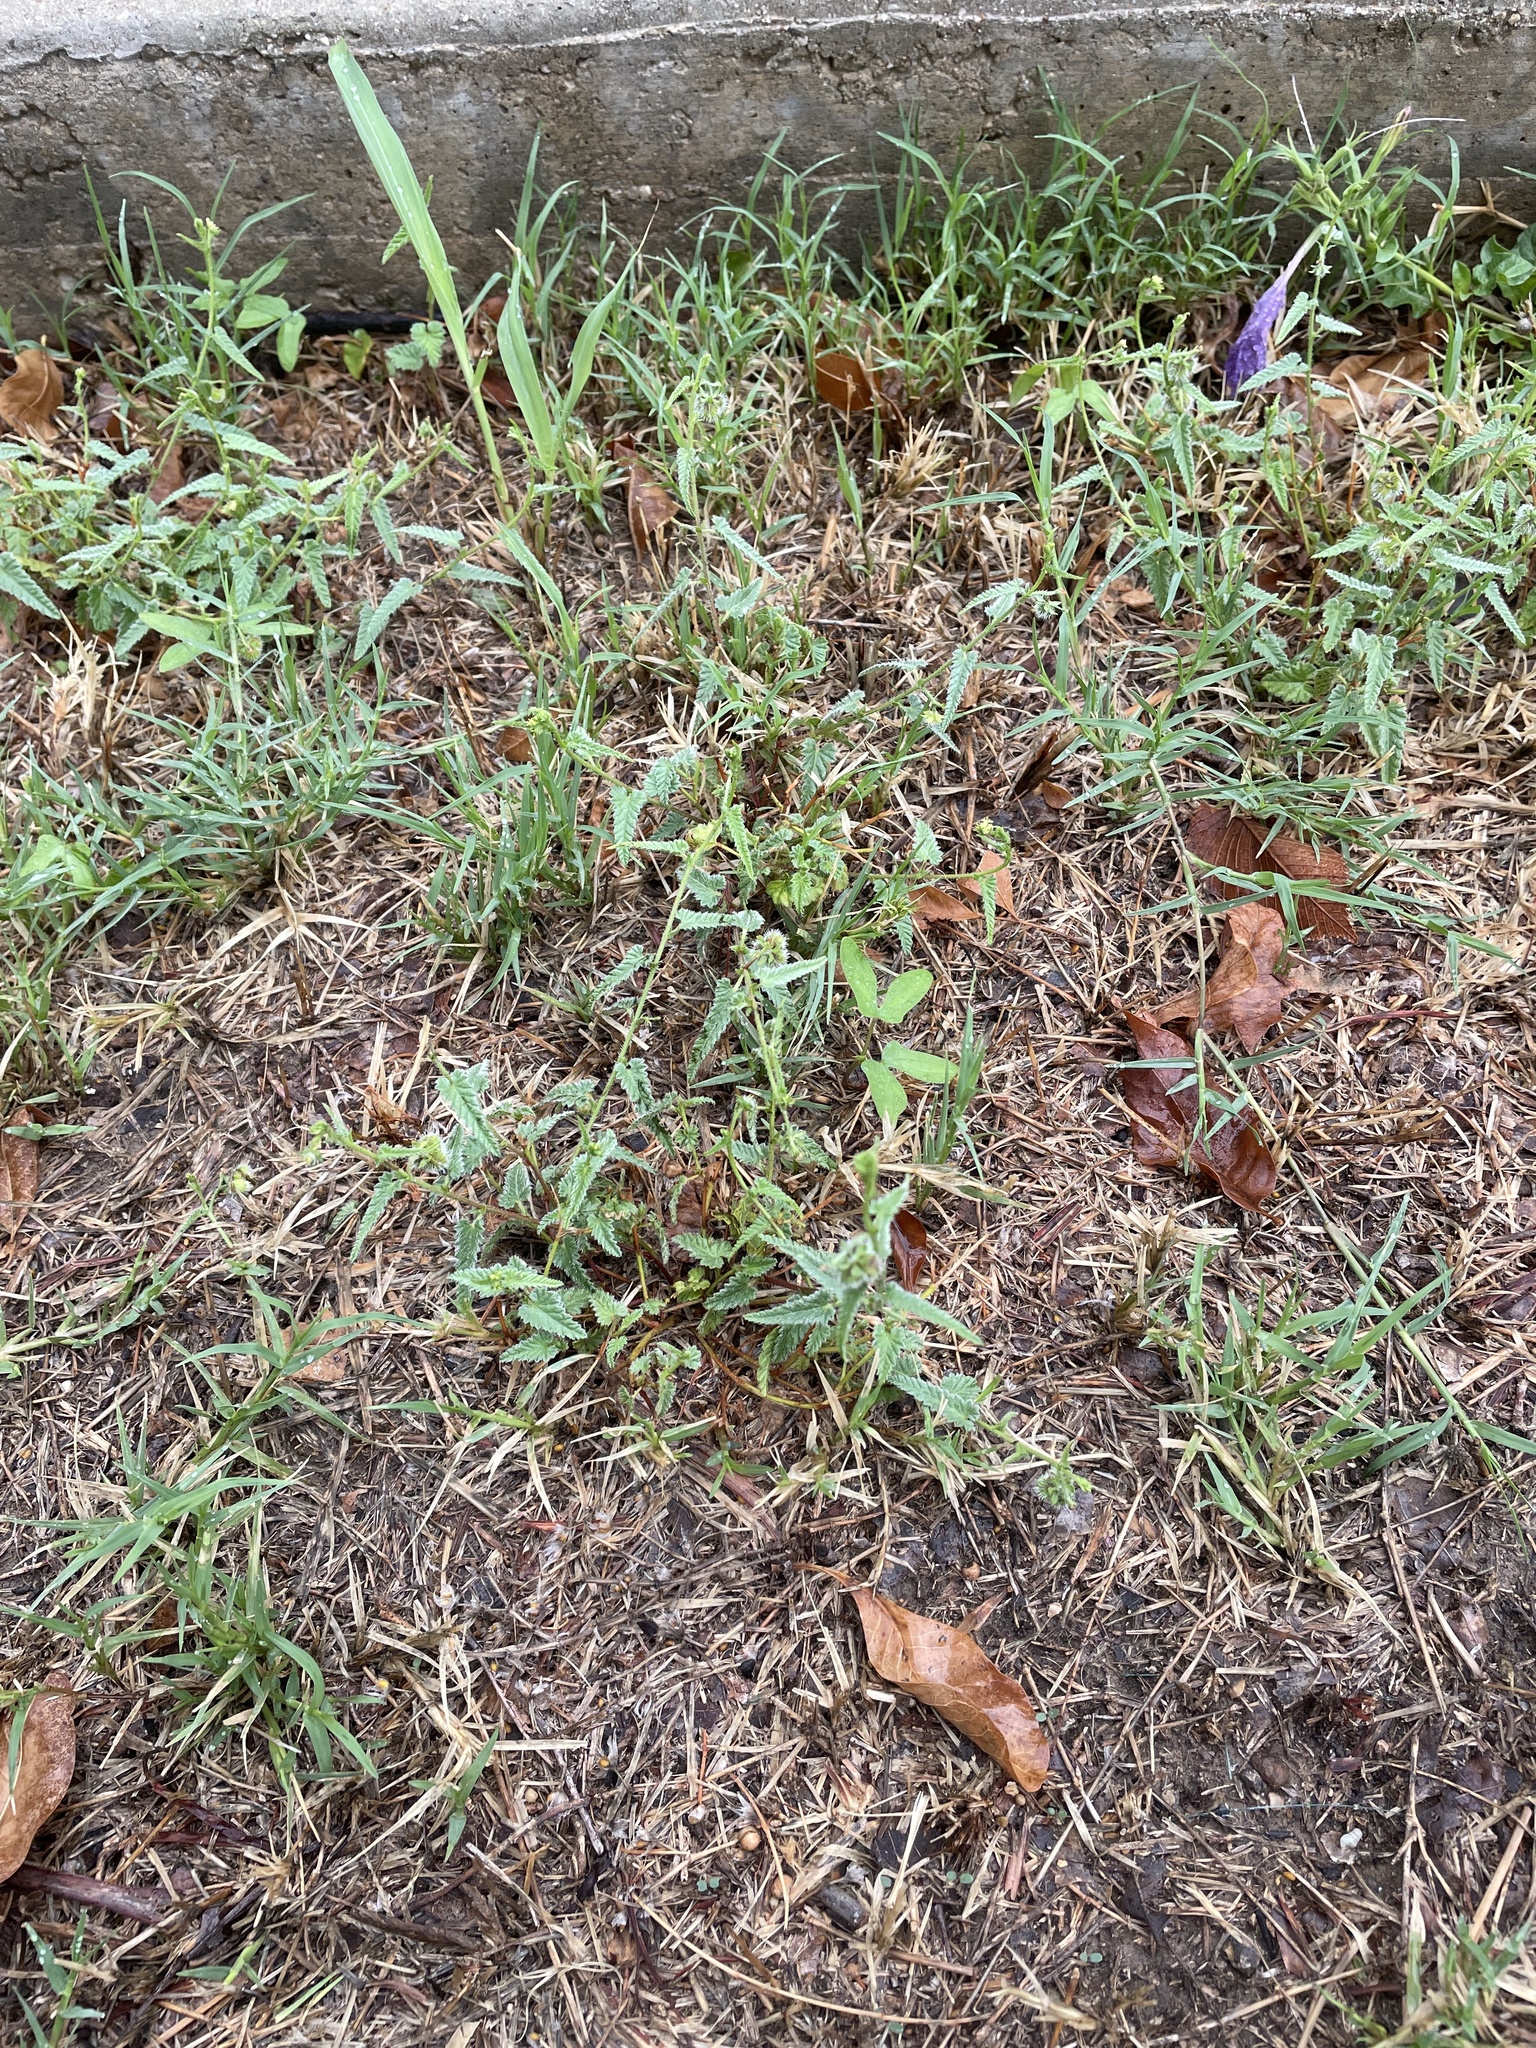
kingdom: Plantae
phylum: Tracheophyta
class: Magnoliopsida
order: Malpighiales
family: Euphorbiaceae
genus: Tragia
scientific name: Tragia ramosa
